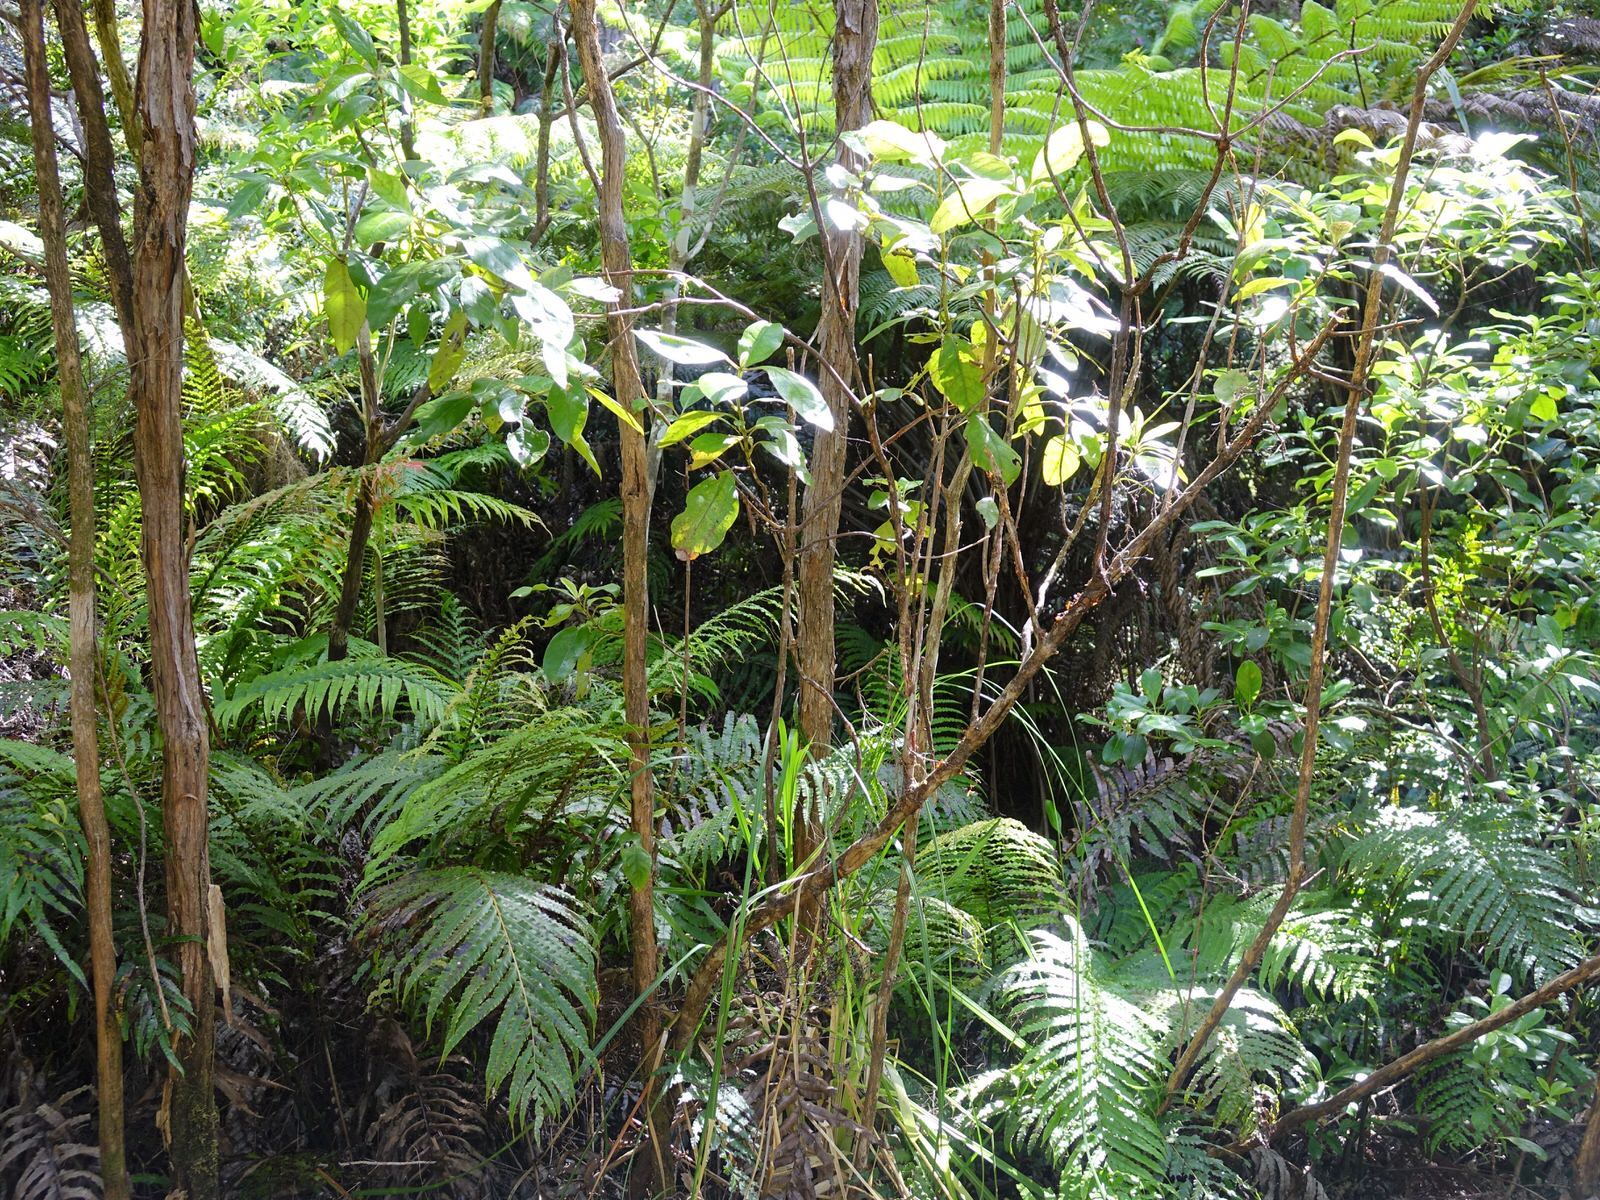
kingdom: Plantae
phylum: Tracheophyta
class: Magnoliopsida
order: Gentianales
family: Rubiaceae
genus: Coprosma
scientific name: Coprosma autumnalis
